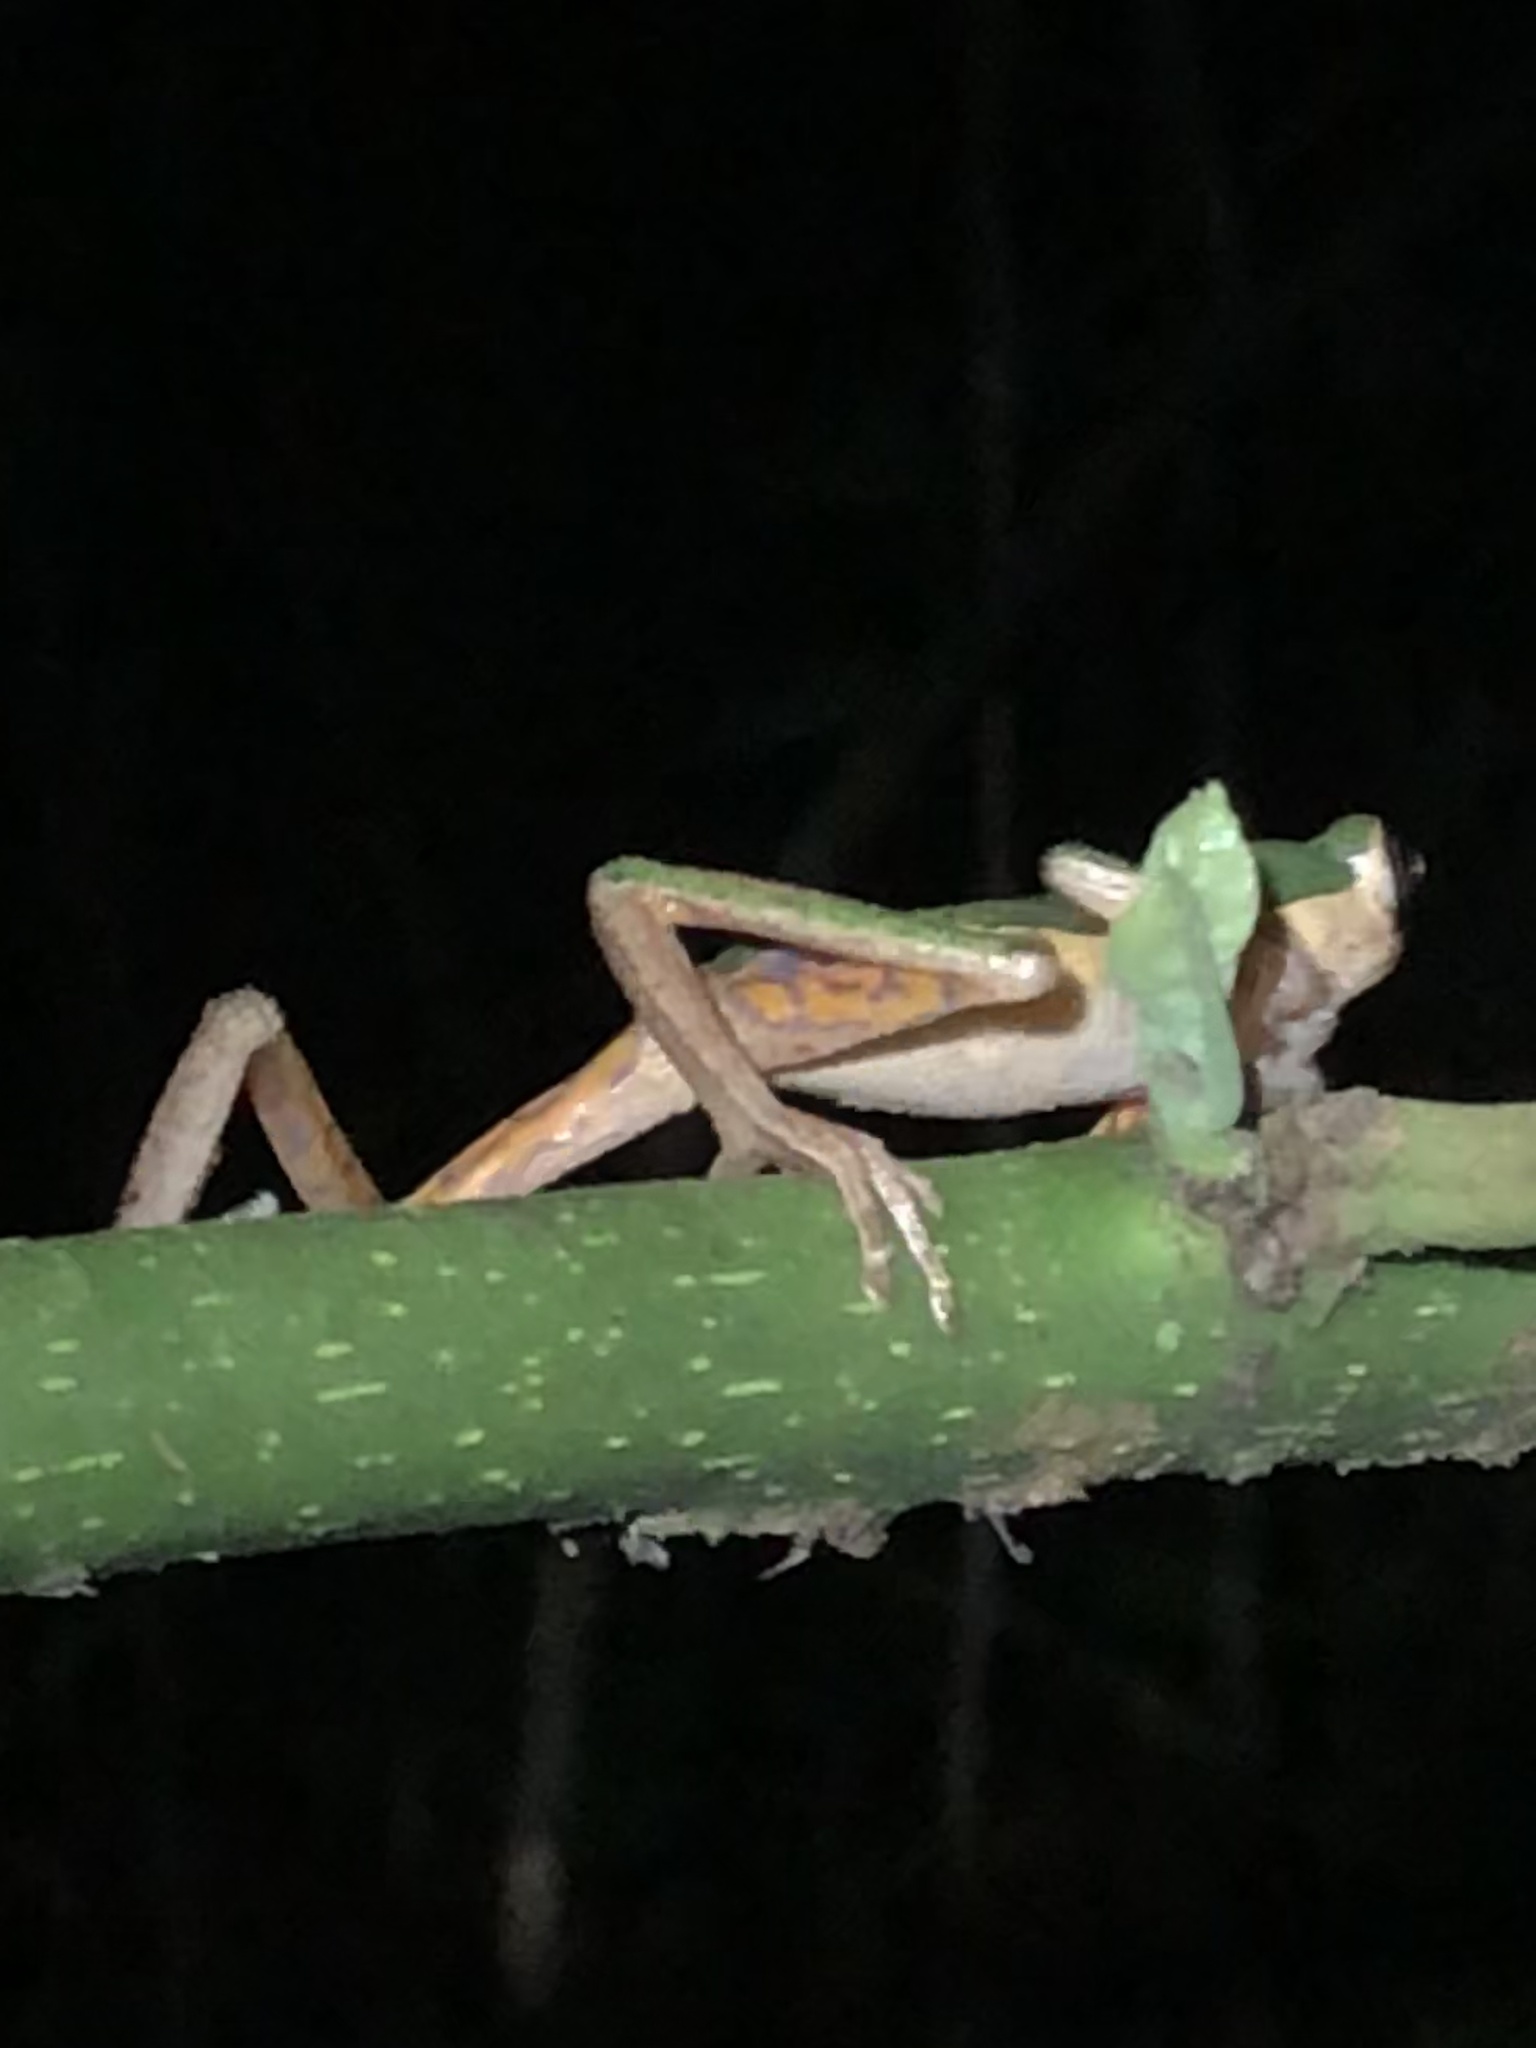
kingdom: Animalia
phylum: Chordata
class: Amphibia
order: Anura
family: Phyllomedusidae
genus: Pithecopus
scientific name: Pithecopus palliatus
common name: Jaguar leaf frog
